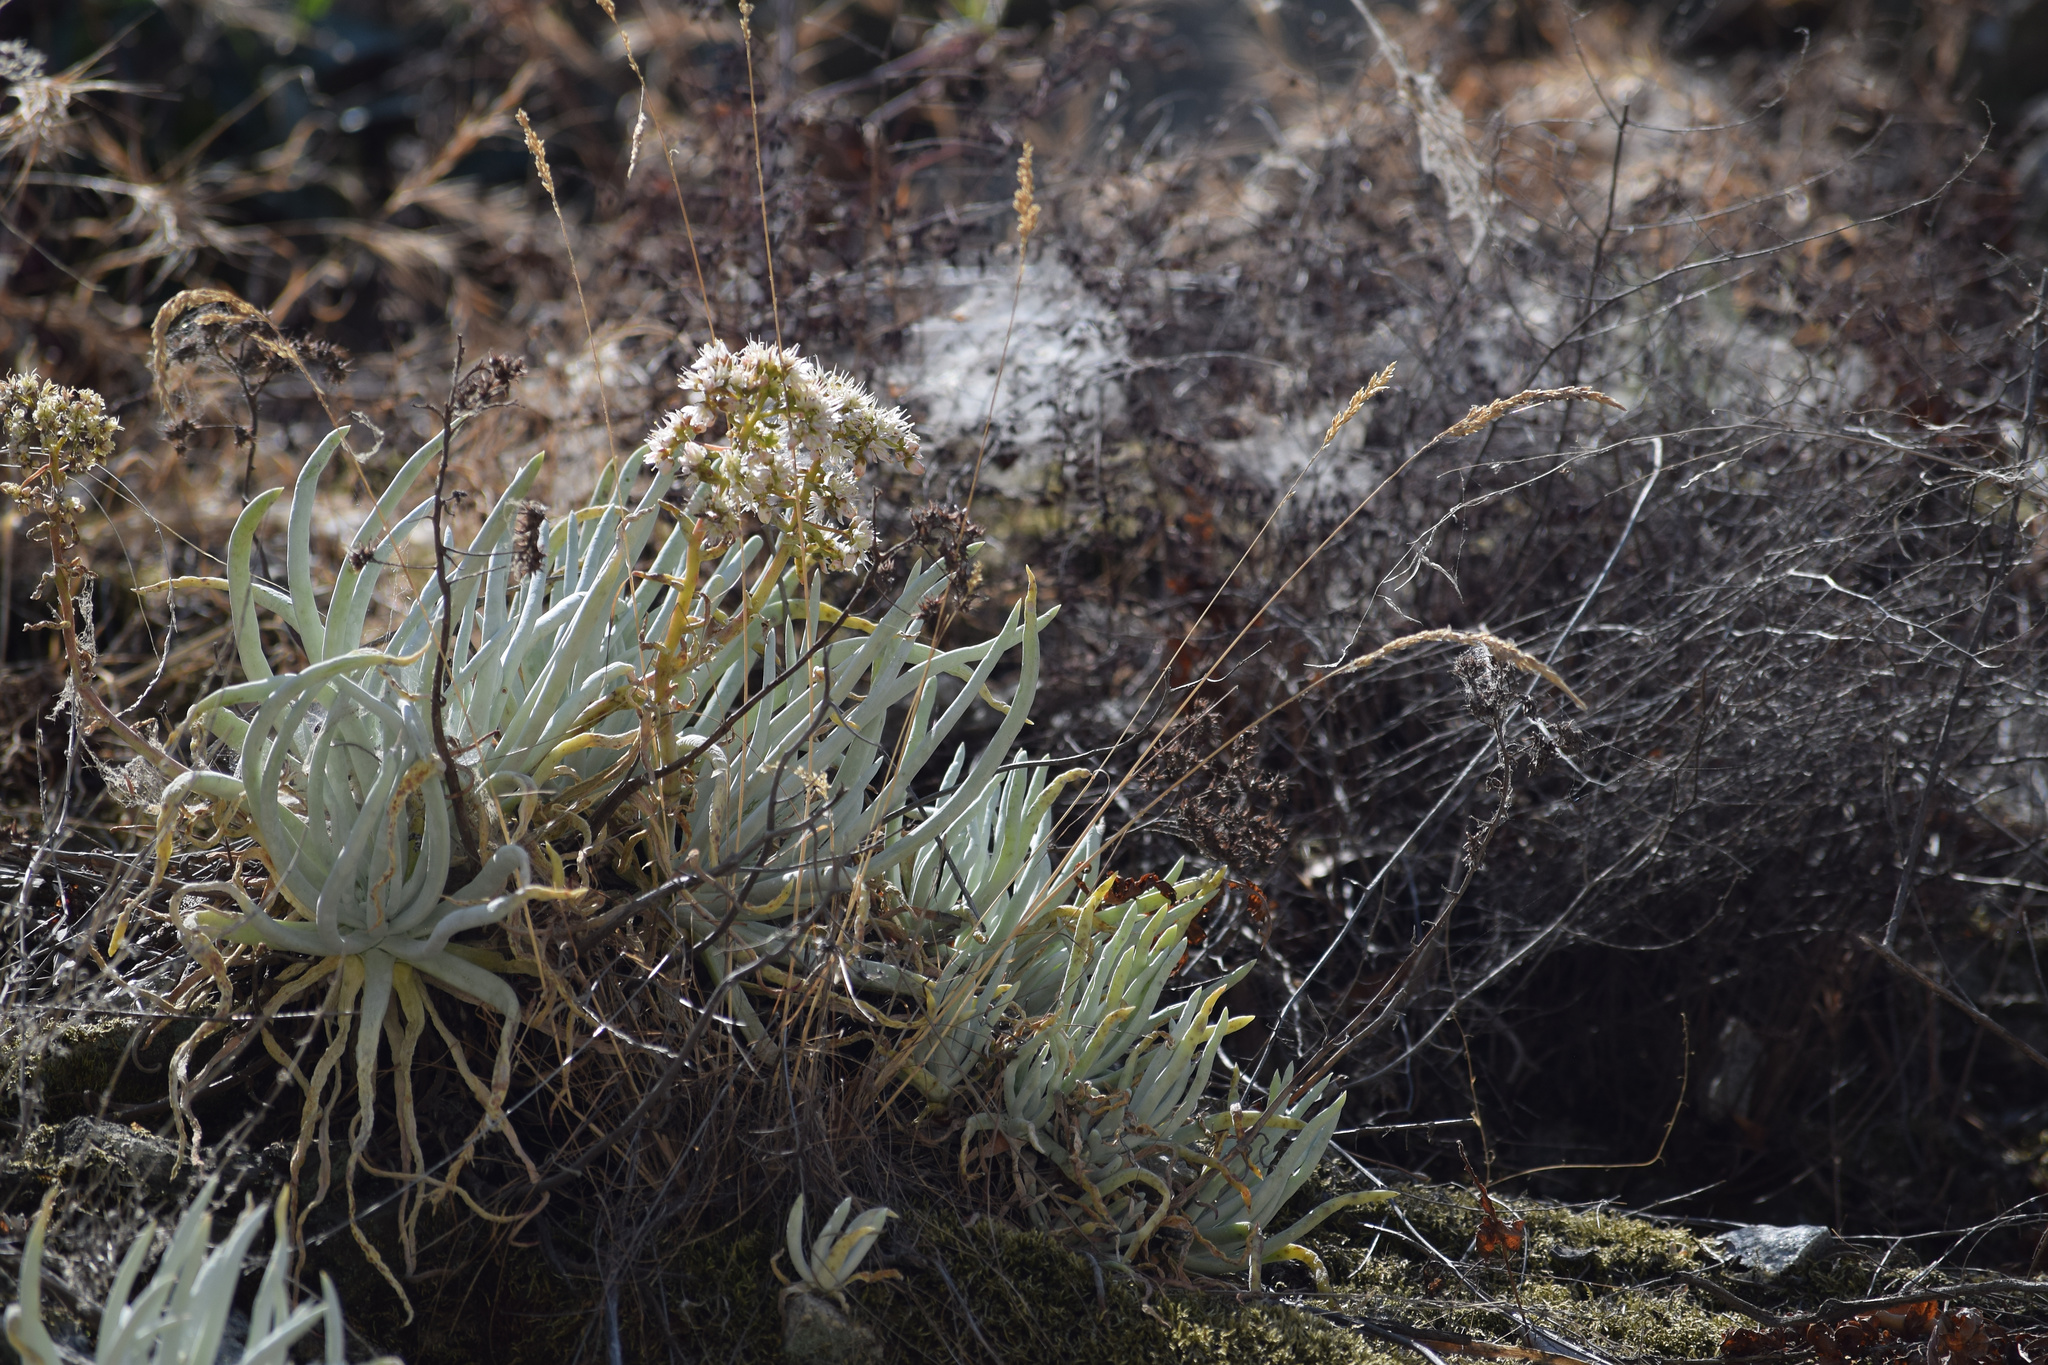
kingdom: Plantae
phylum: Tracheophyta
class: Magnoliopsida
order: Saxifragales
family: Crassulaceae
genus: Dudleya
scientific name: Dudleya densiflora
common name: San gabriel mountains dudleya
